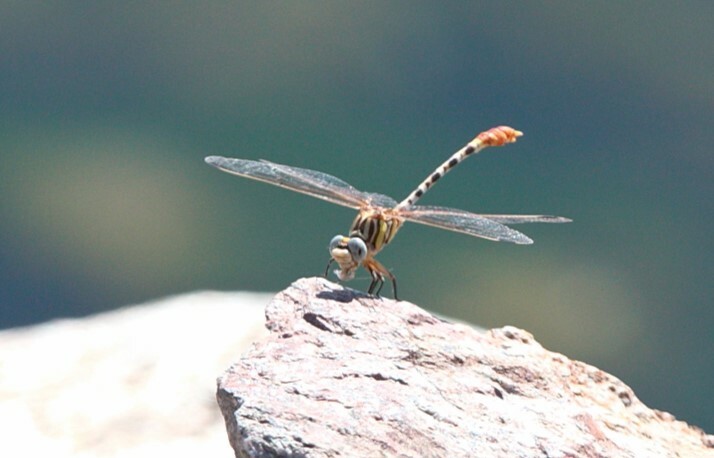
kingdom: Animalia
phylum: Arthropoda
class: Insecta
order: Odonata
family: Gomphidae
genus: Erpetogomphus
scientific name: Erpetogomphus compositus
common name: White-belted ringtail
